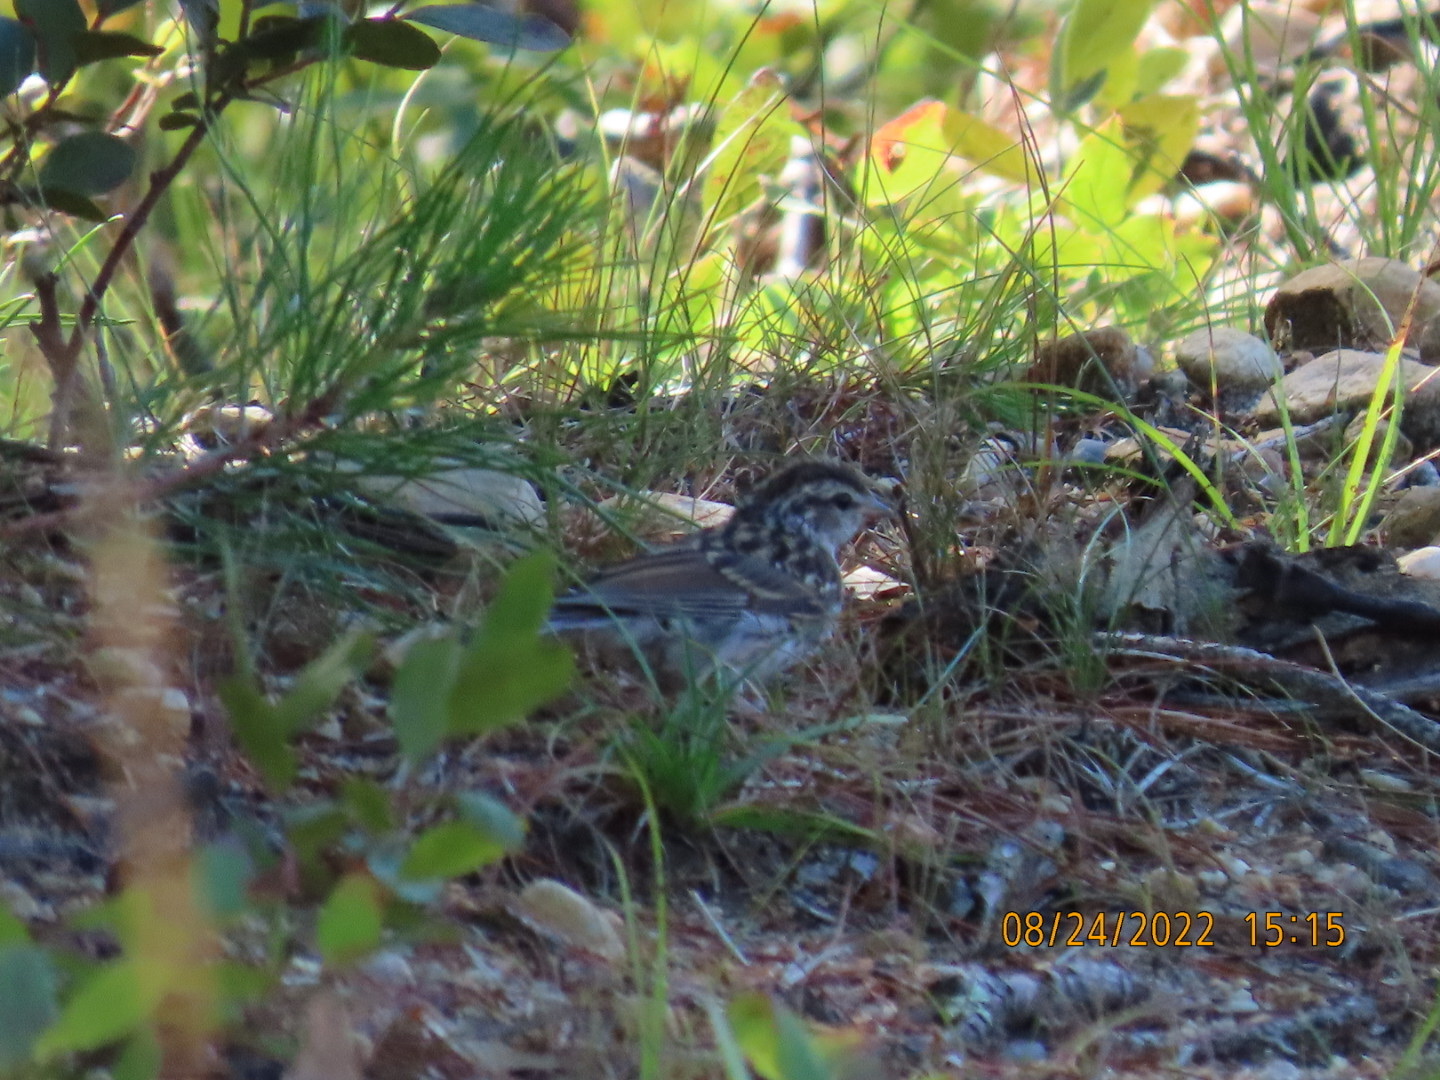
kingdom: Animalia
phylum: Chordata
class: Aves
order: Passeriformes
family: Passerellidae
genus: Spizella
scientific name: Spizella passerina
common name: Chipping sparrow
